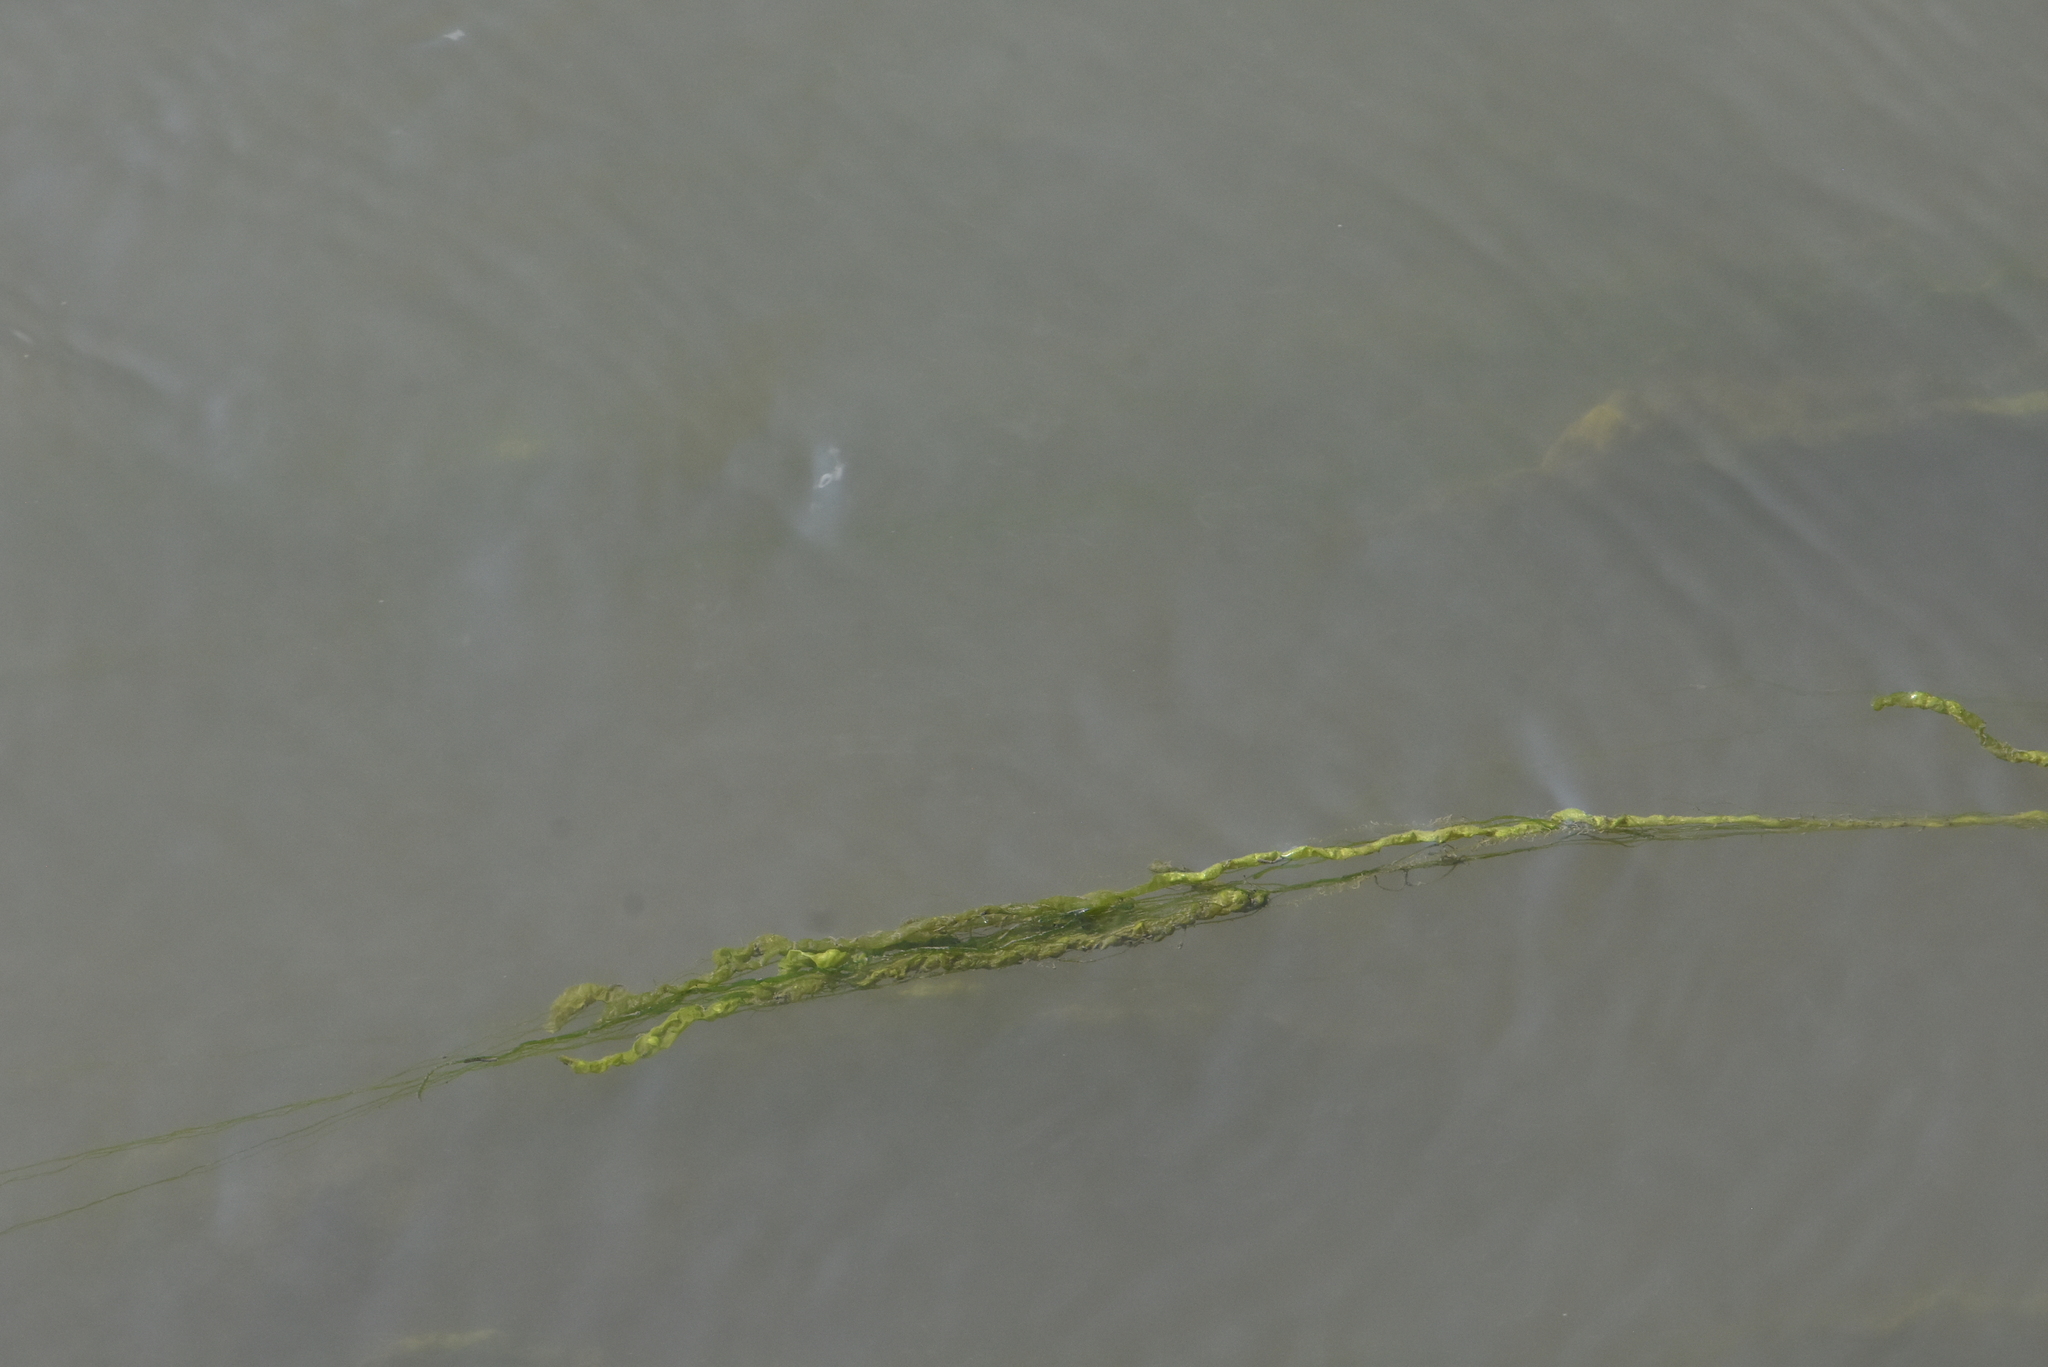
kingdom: Plantae
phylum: Chlorophyta
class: Ulvophyceae
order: Ulvales
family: Ulvaceae
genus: Ulva
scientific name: Ulva intestinalis
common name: Gut weed
